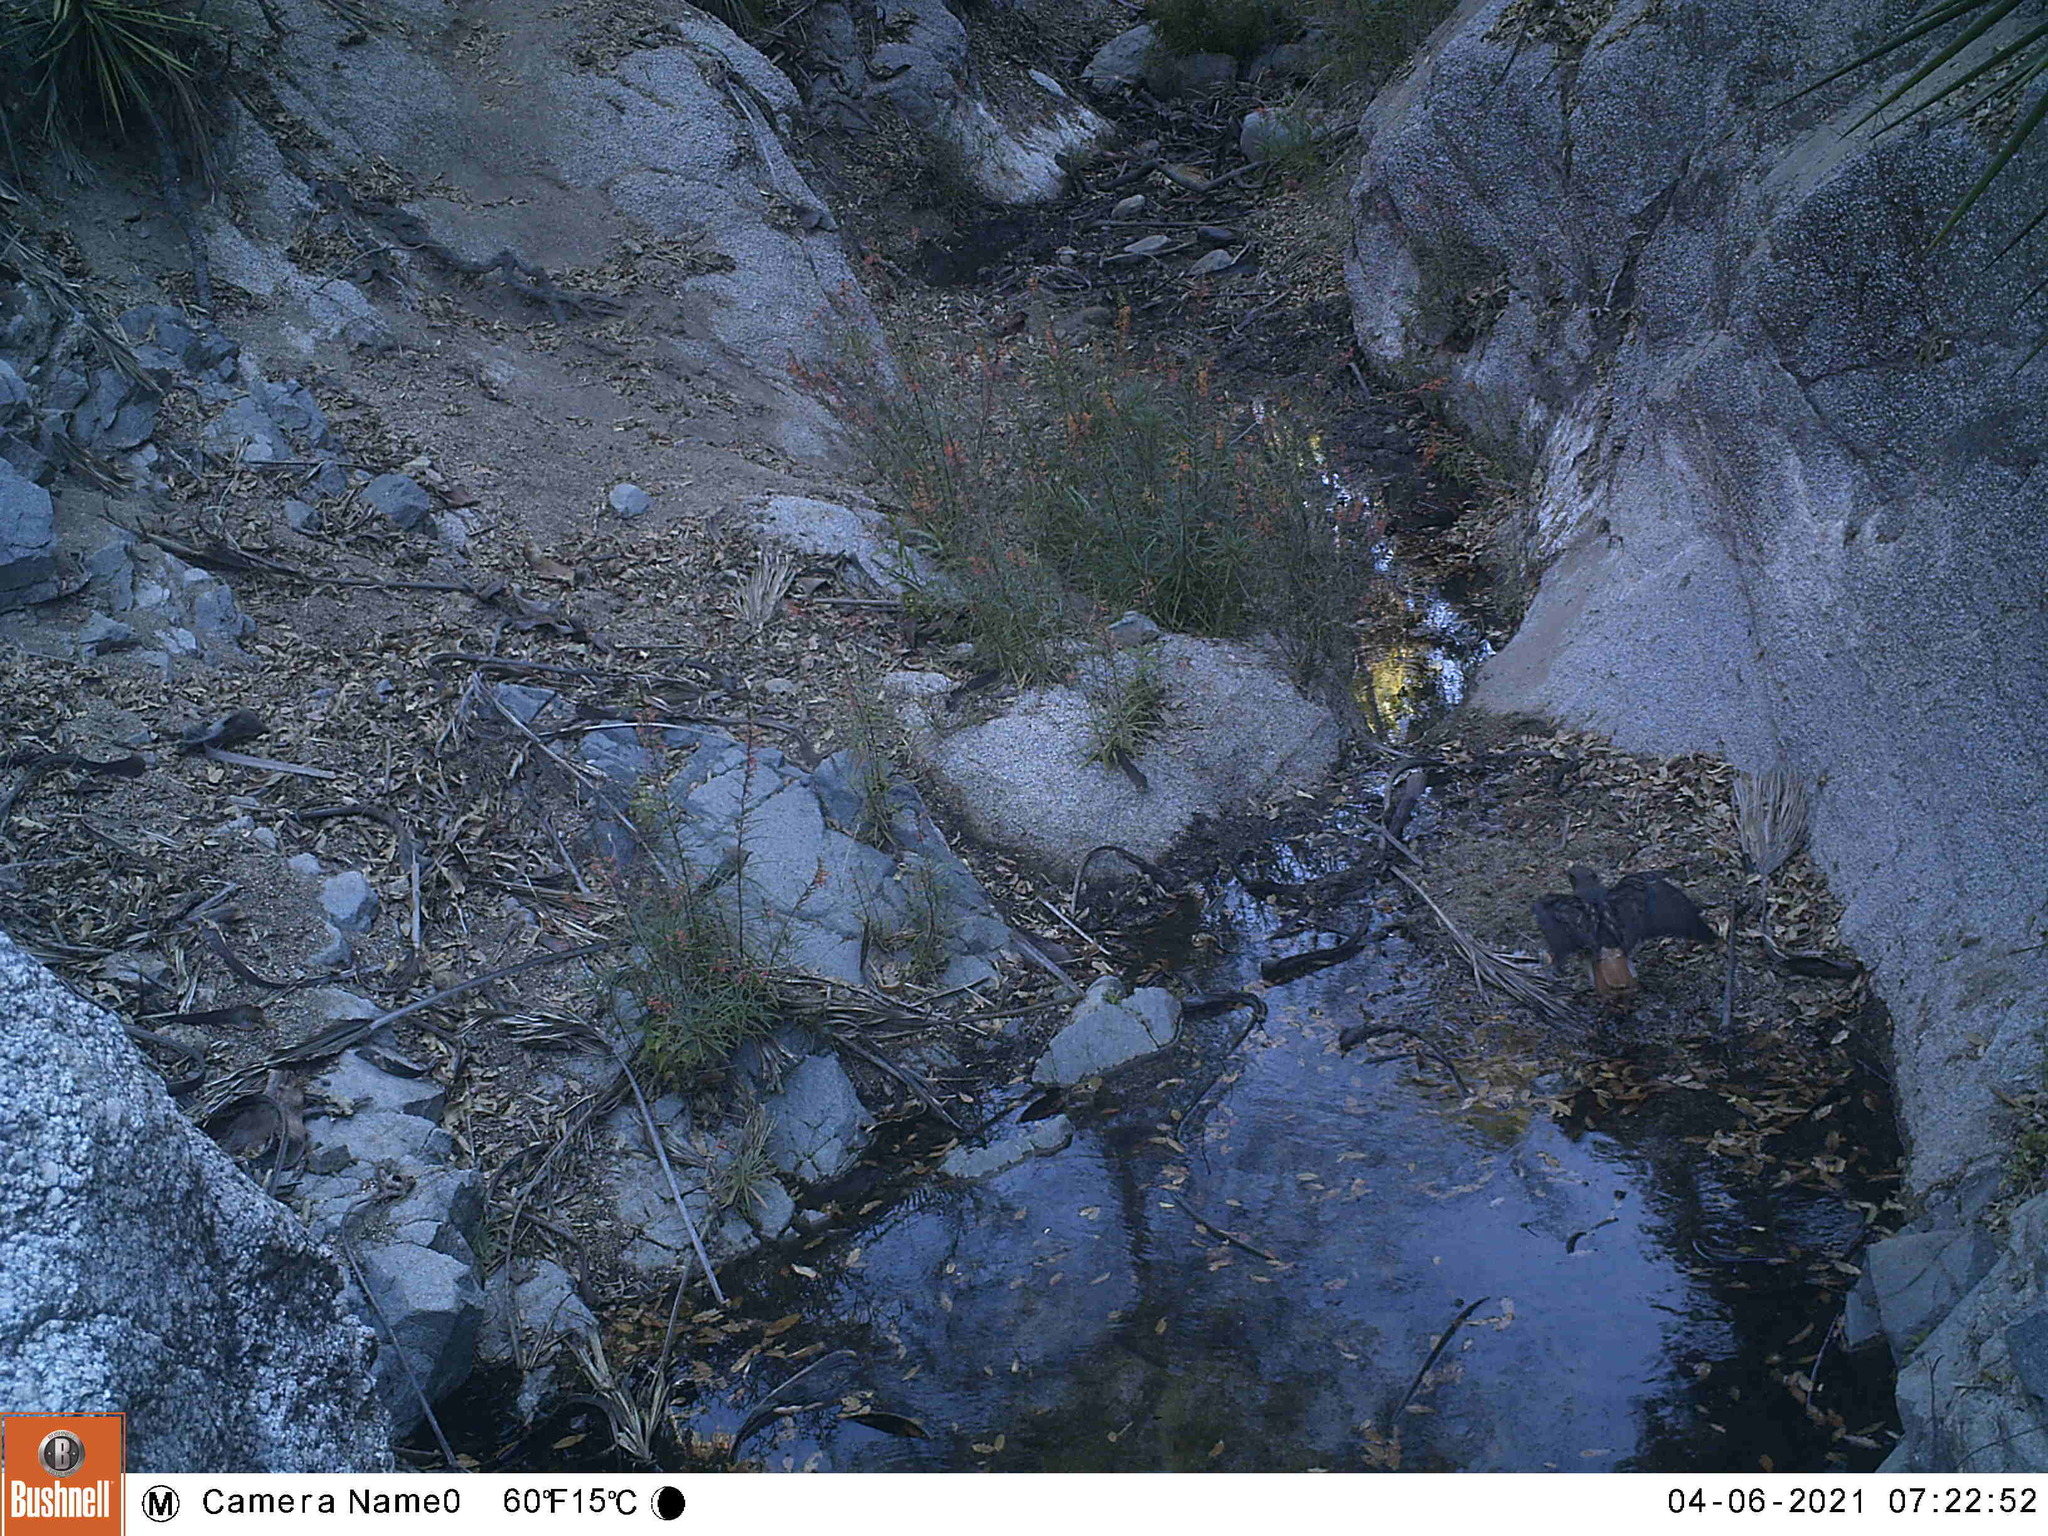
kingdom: Animalia
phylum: Chordata
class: Aves
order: Accipitriformes
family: Accipitridae
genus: Buteo
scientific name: Buteo jamaicensis
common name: Red-tailed hawk
